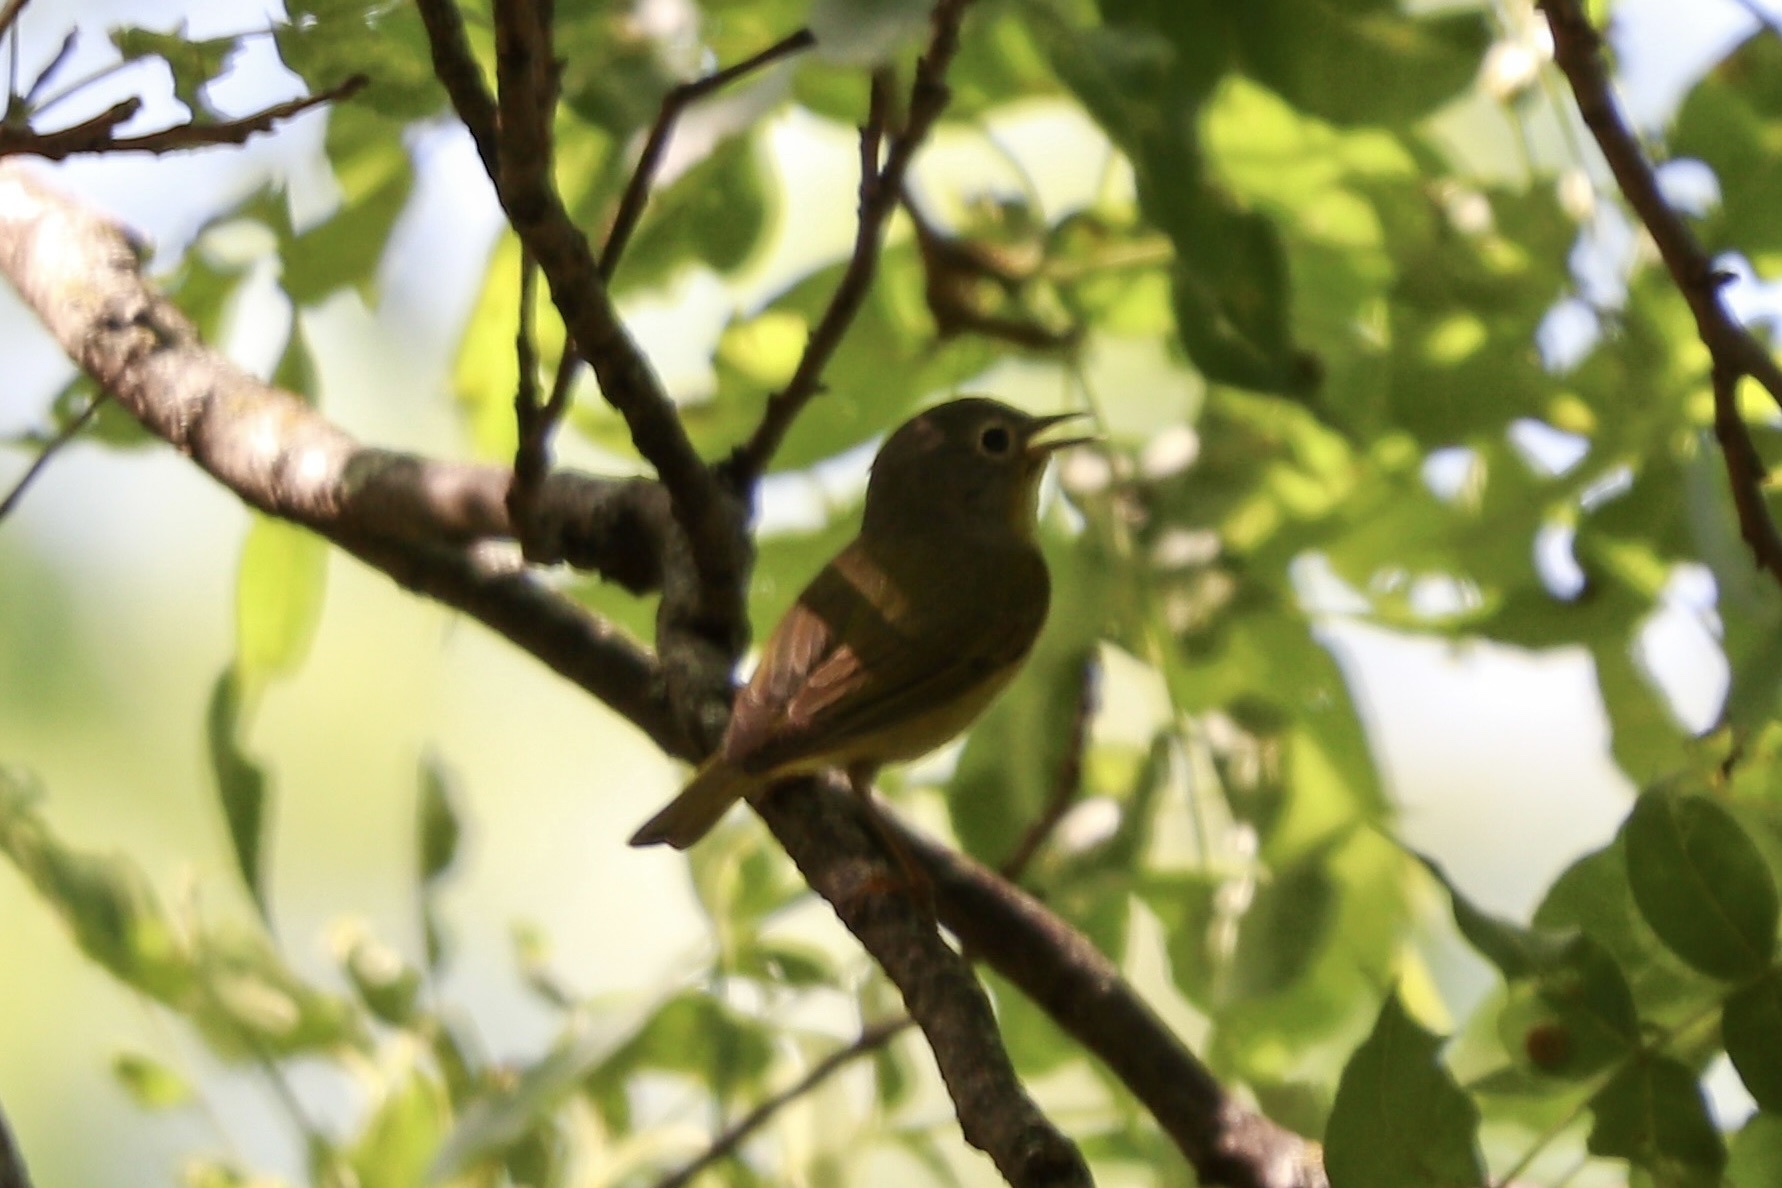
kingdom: Animalia
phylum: Chordata
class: Aves
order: Passeriformes
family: Parulidae
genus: Leiothlypis
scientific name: Leiothlypis ruficapilla
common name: Nashville warbler
